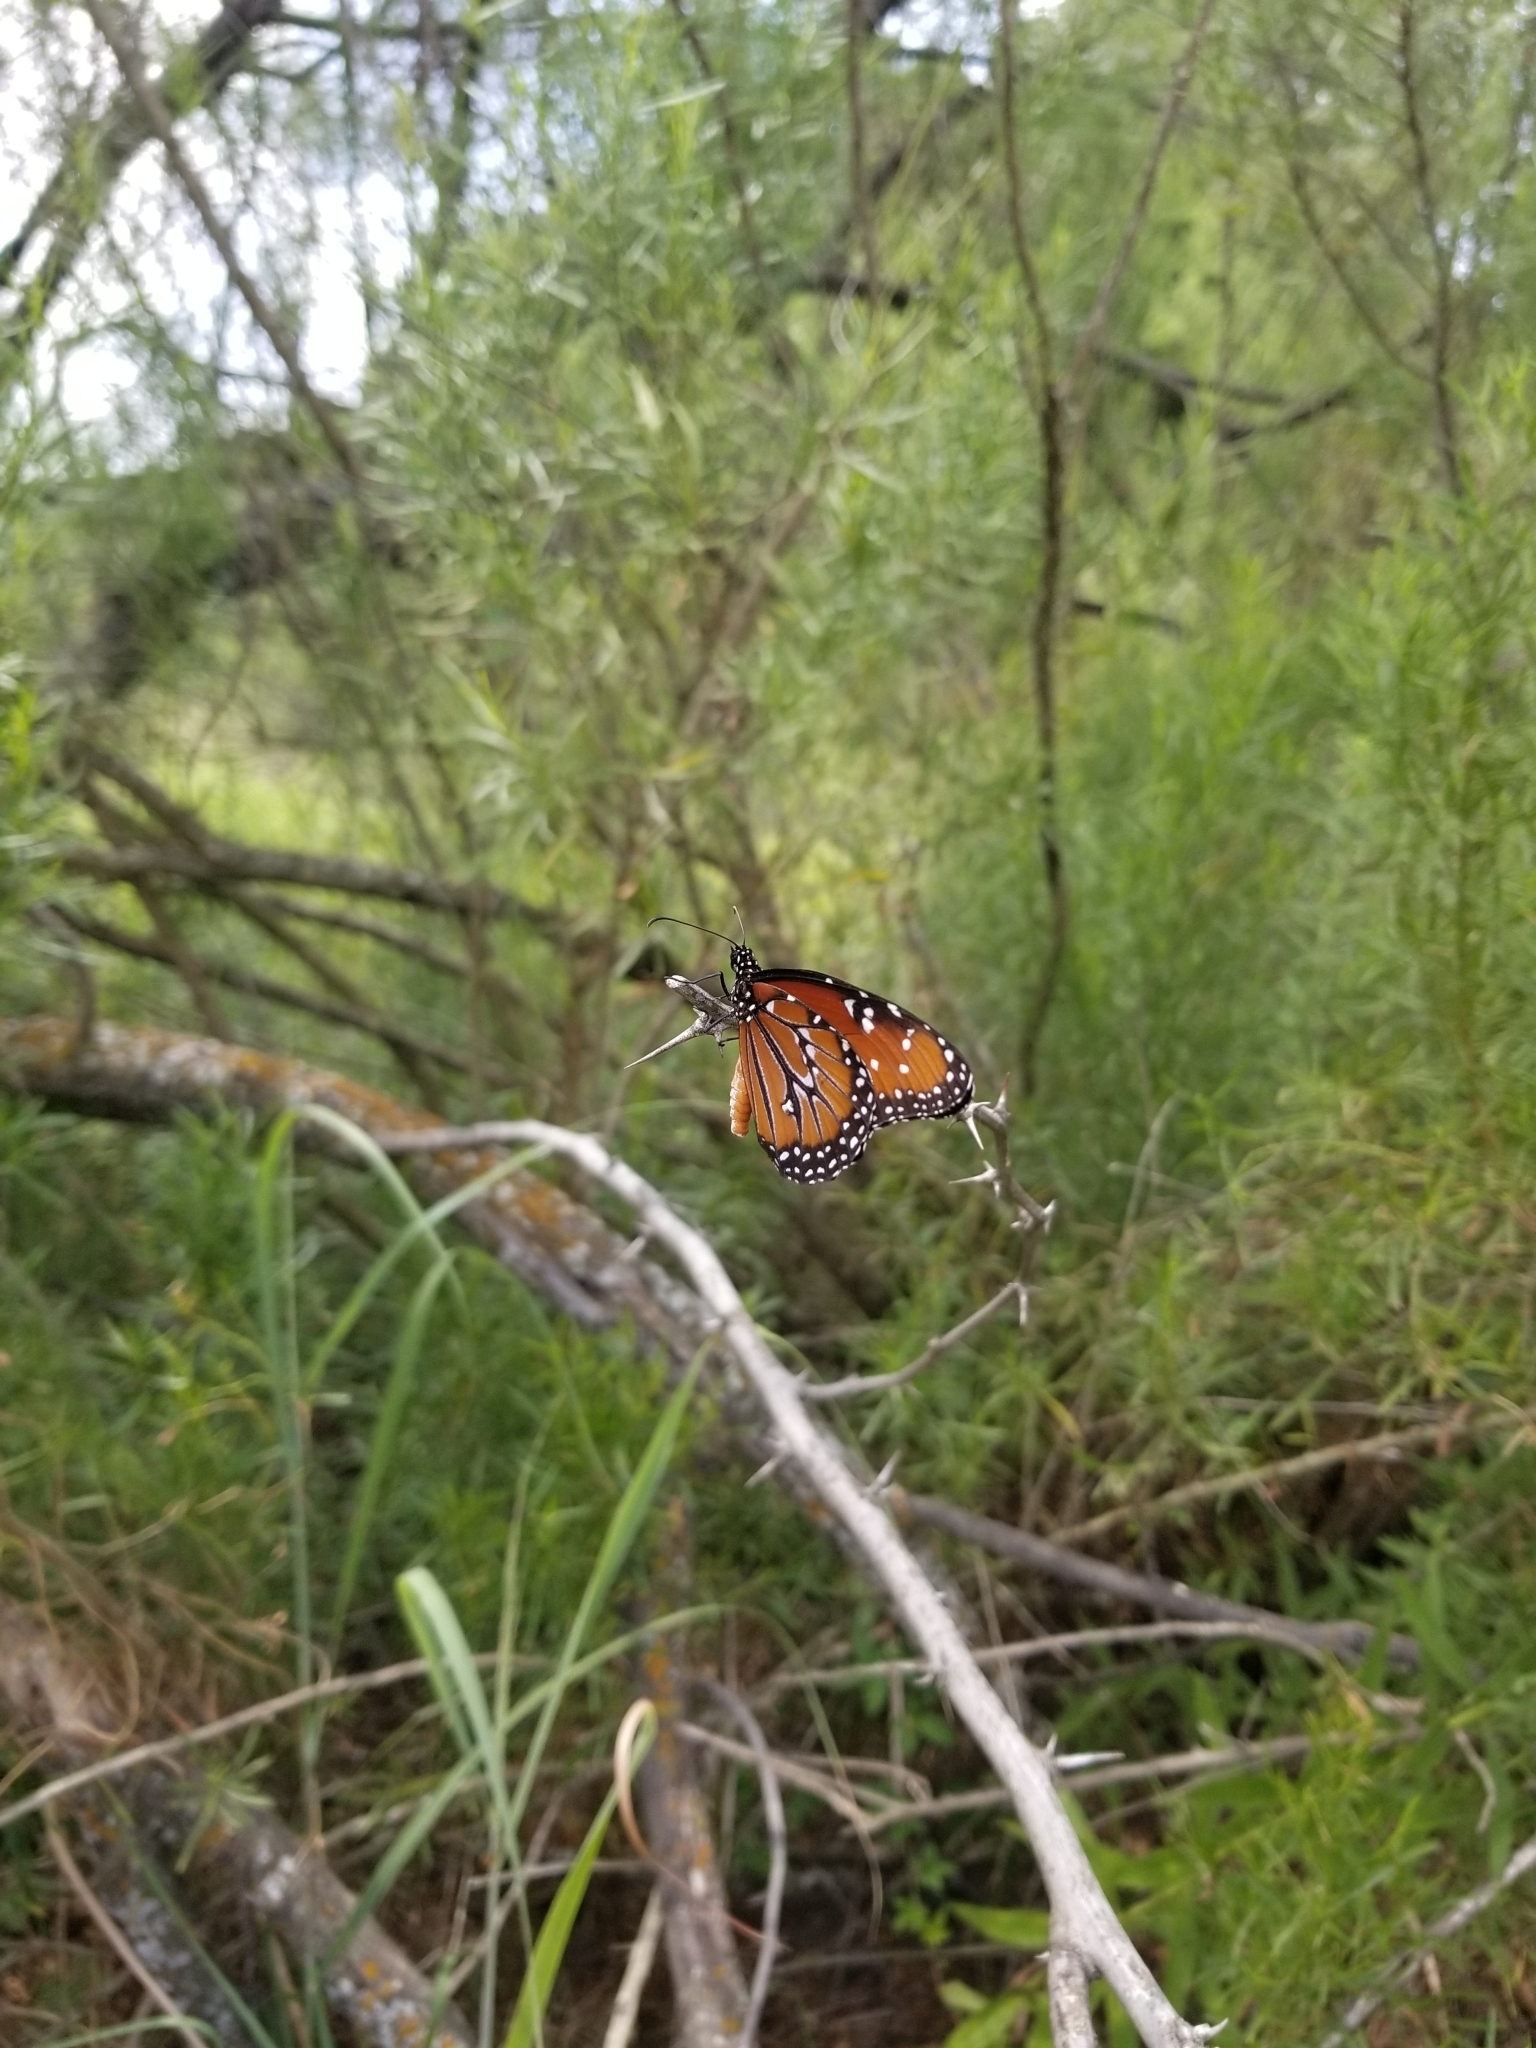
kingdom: Animalia
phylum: Arthropoda
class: Insecta
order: Lepidoptera
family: Nymphalidae
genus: Danaus
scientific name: Danaus gilippus
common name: Queen
